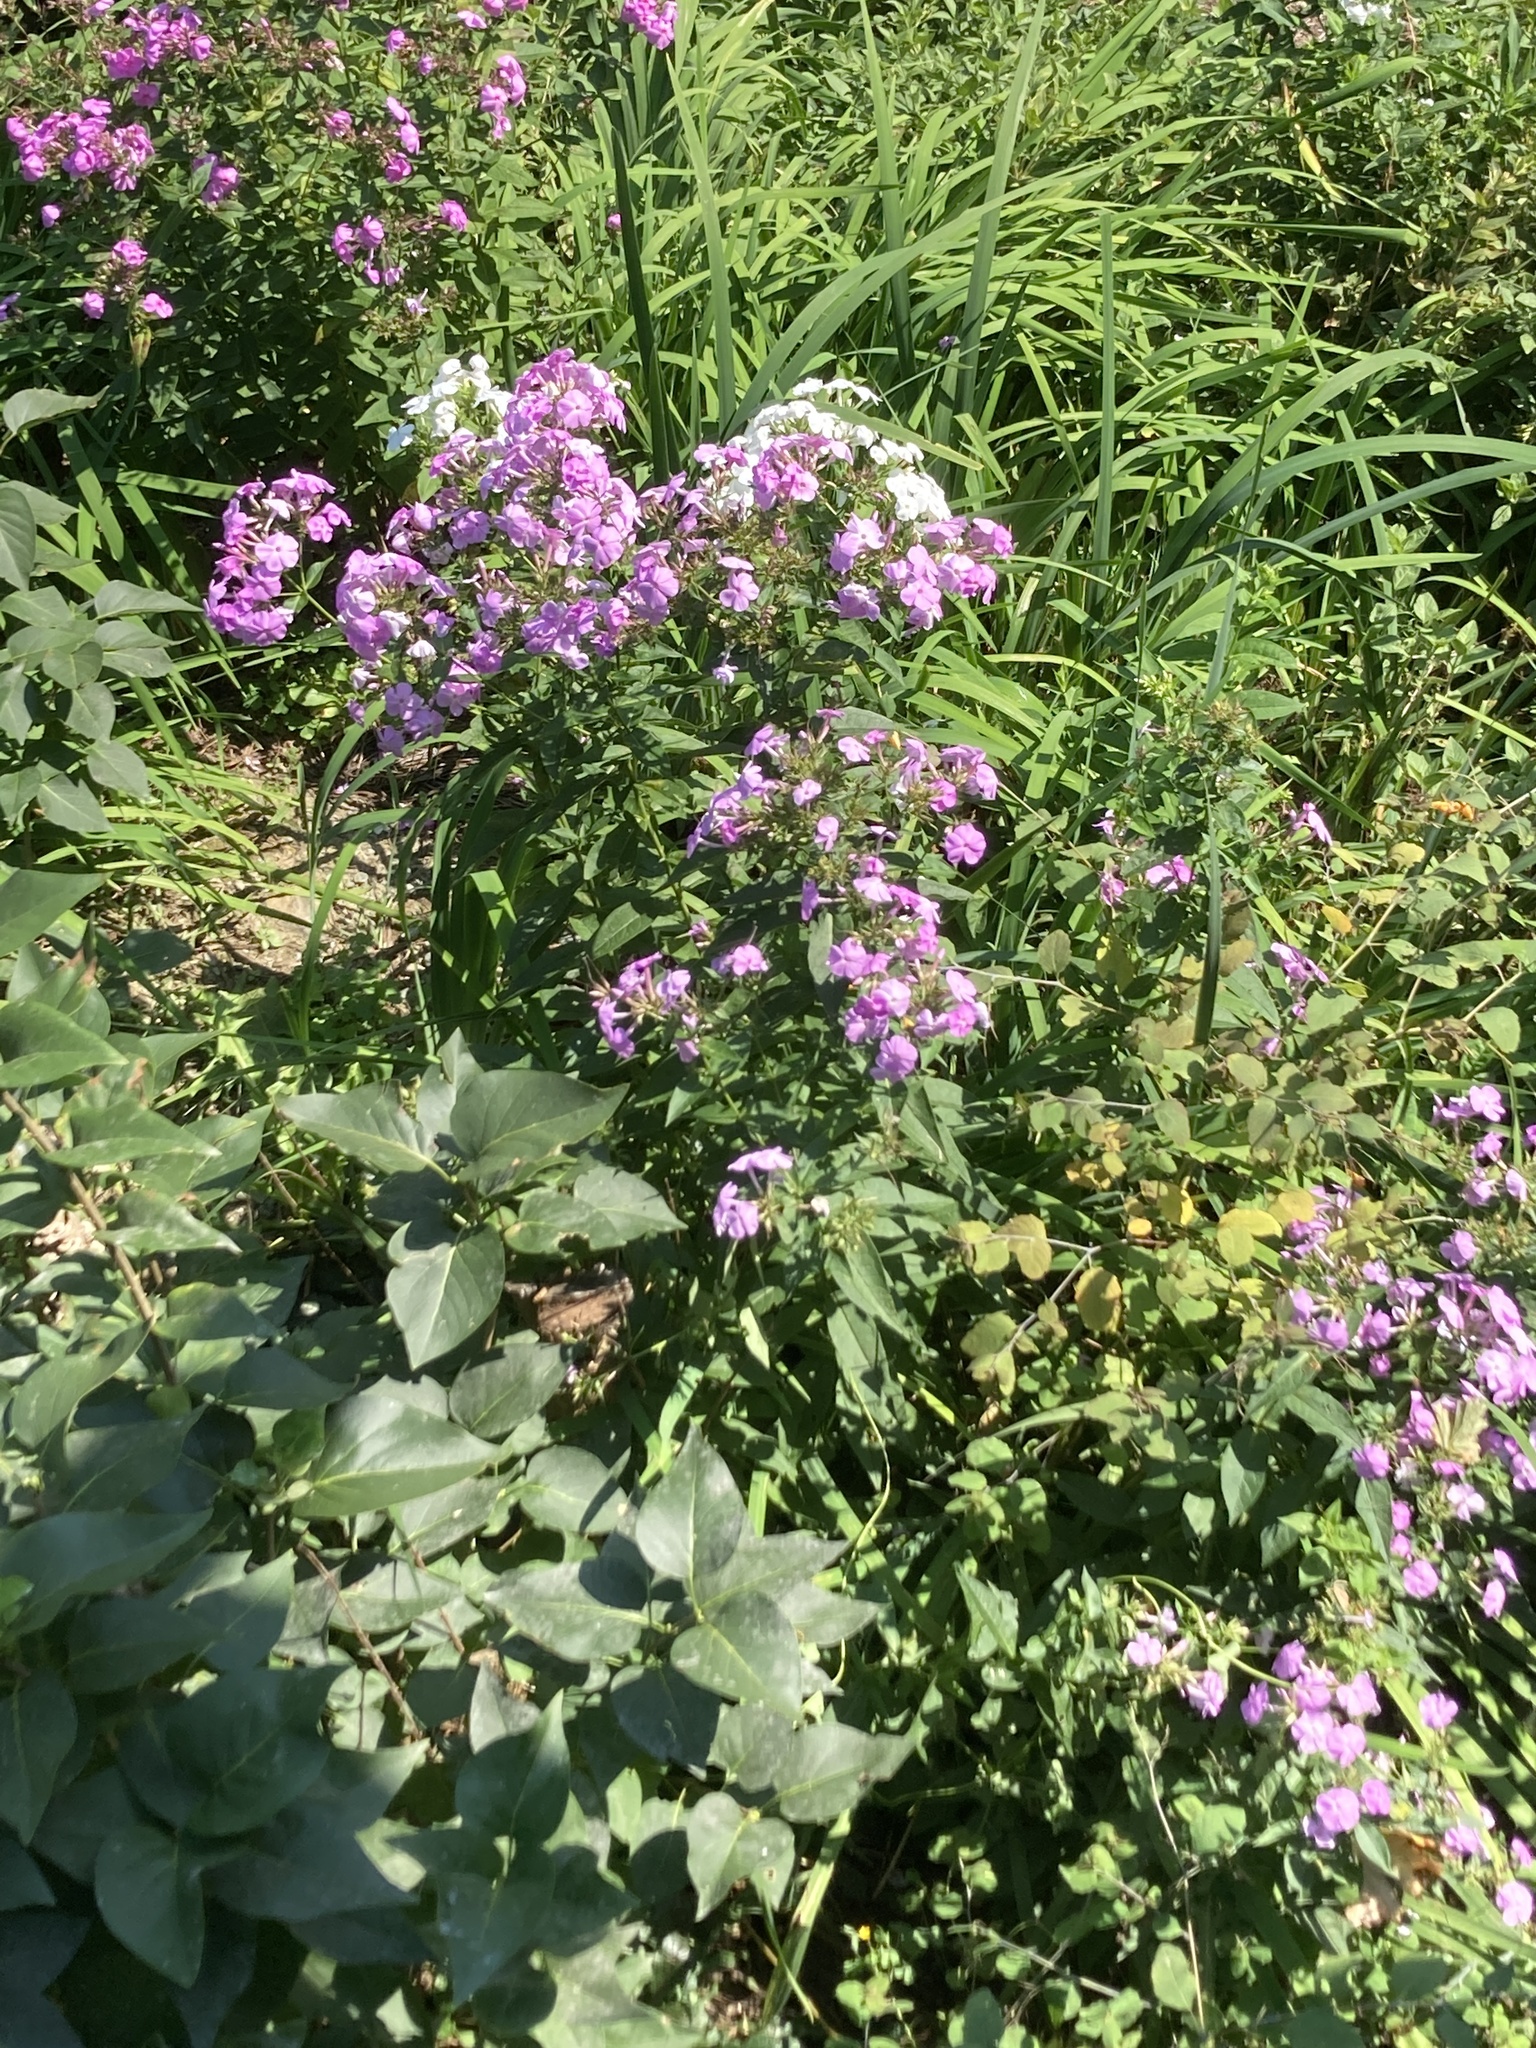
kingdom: Plantae
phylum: Tracheophyta
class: Magnoliopsida
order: Ericales
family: Polemoniaceae
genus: Phlox
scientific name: Phlox paniculata
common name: Fall phlox
